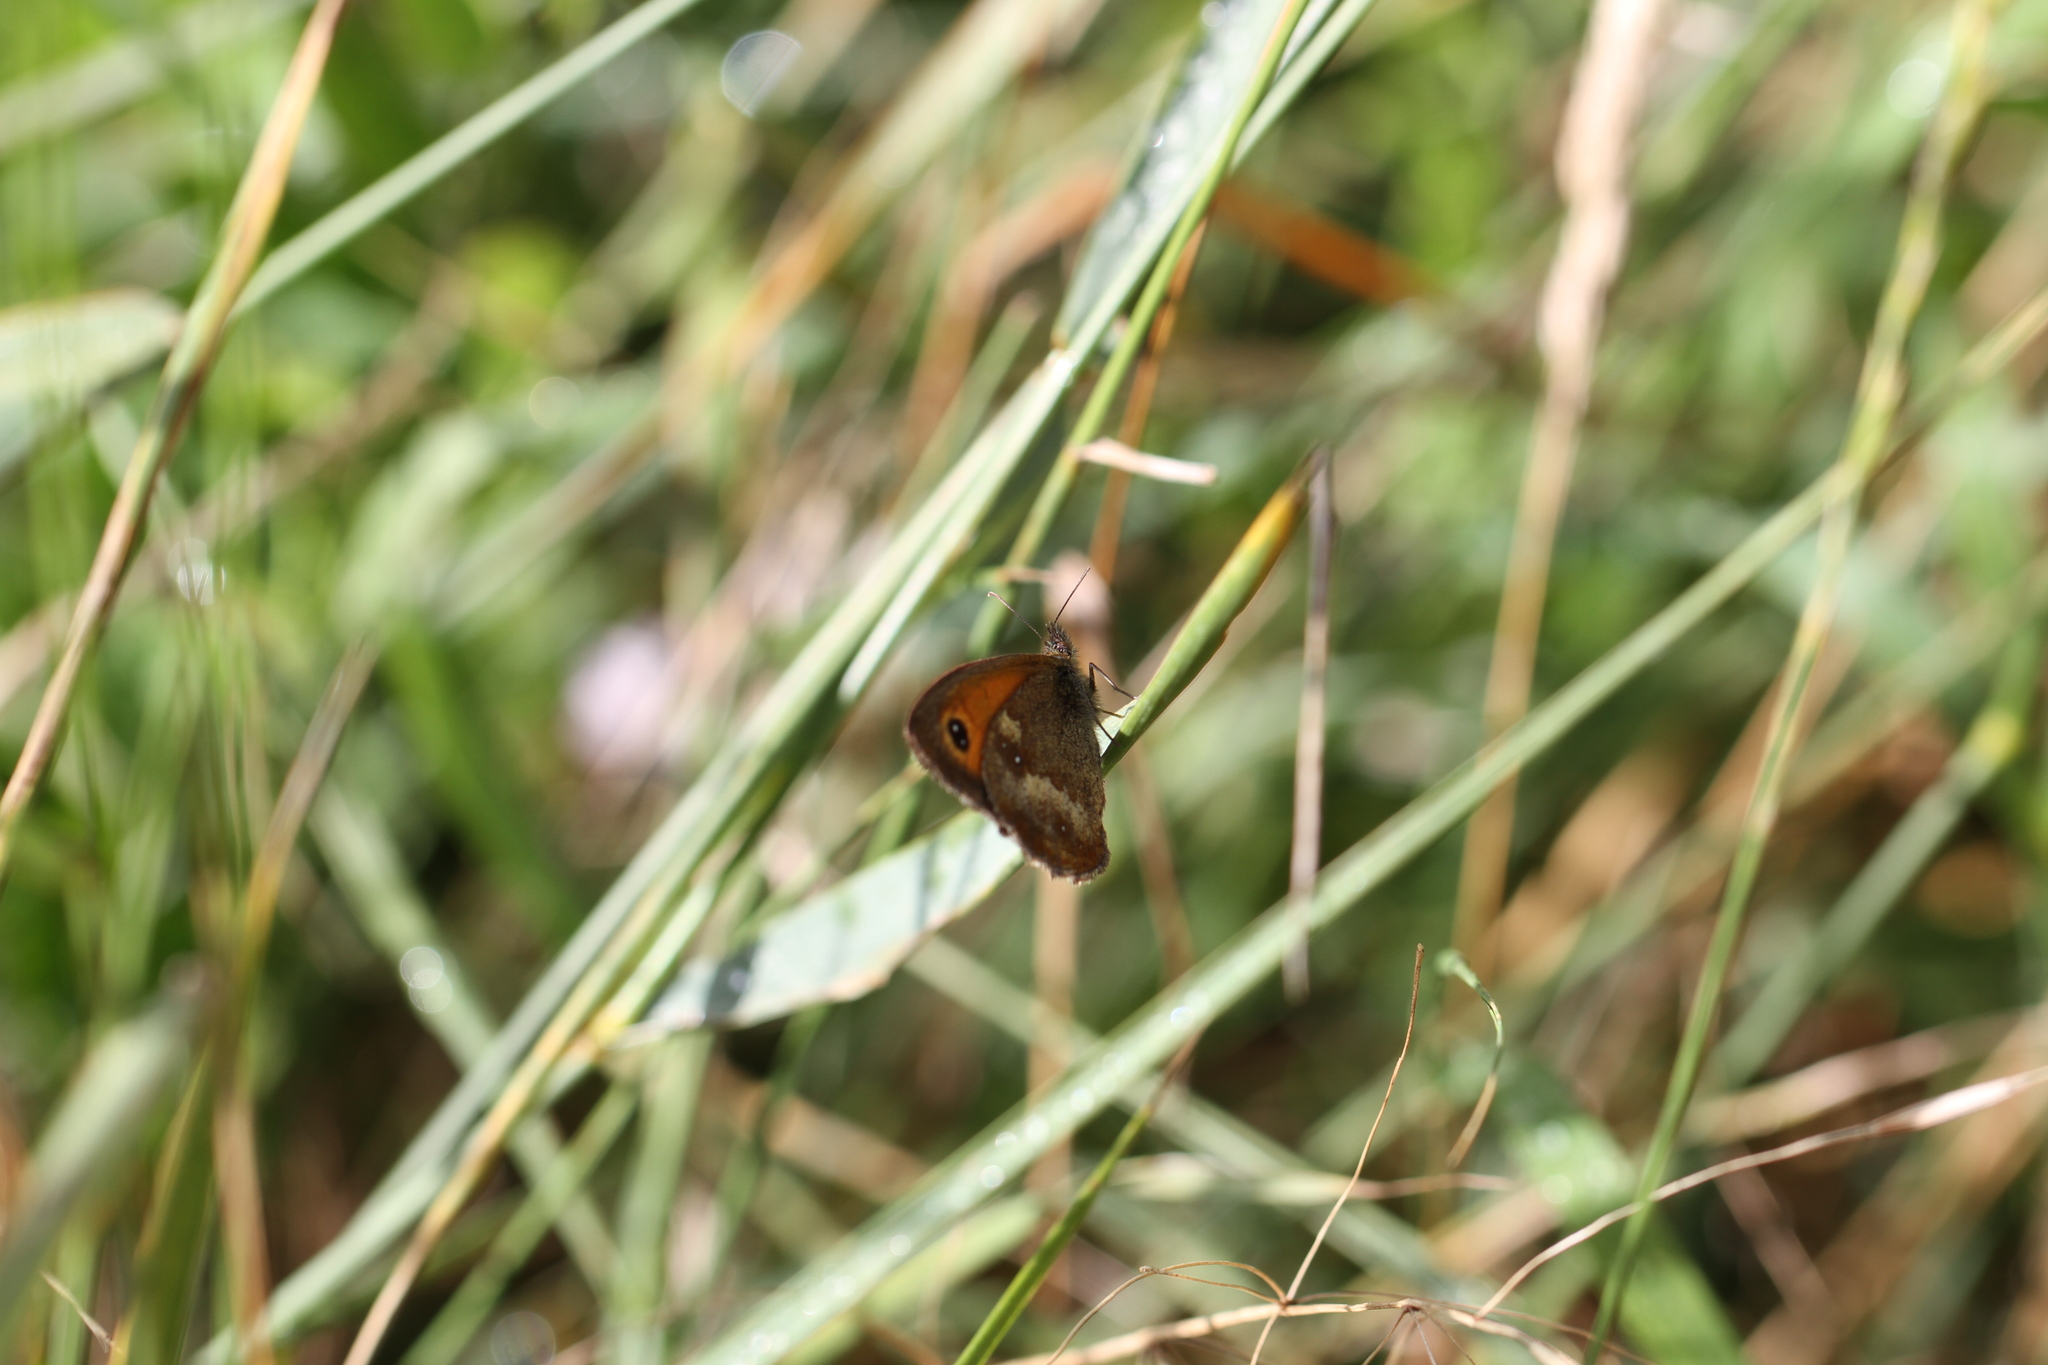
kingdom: Animalia
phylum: Arthropoda
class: Insecta
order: Lepidoptera
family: Nymphalidae
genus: Pyronia
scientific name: Pyronia tithonus
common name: Gatekeeper
